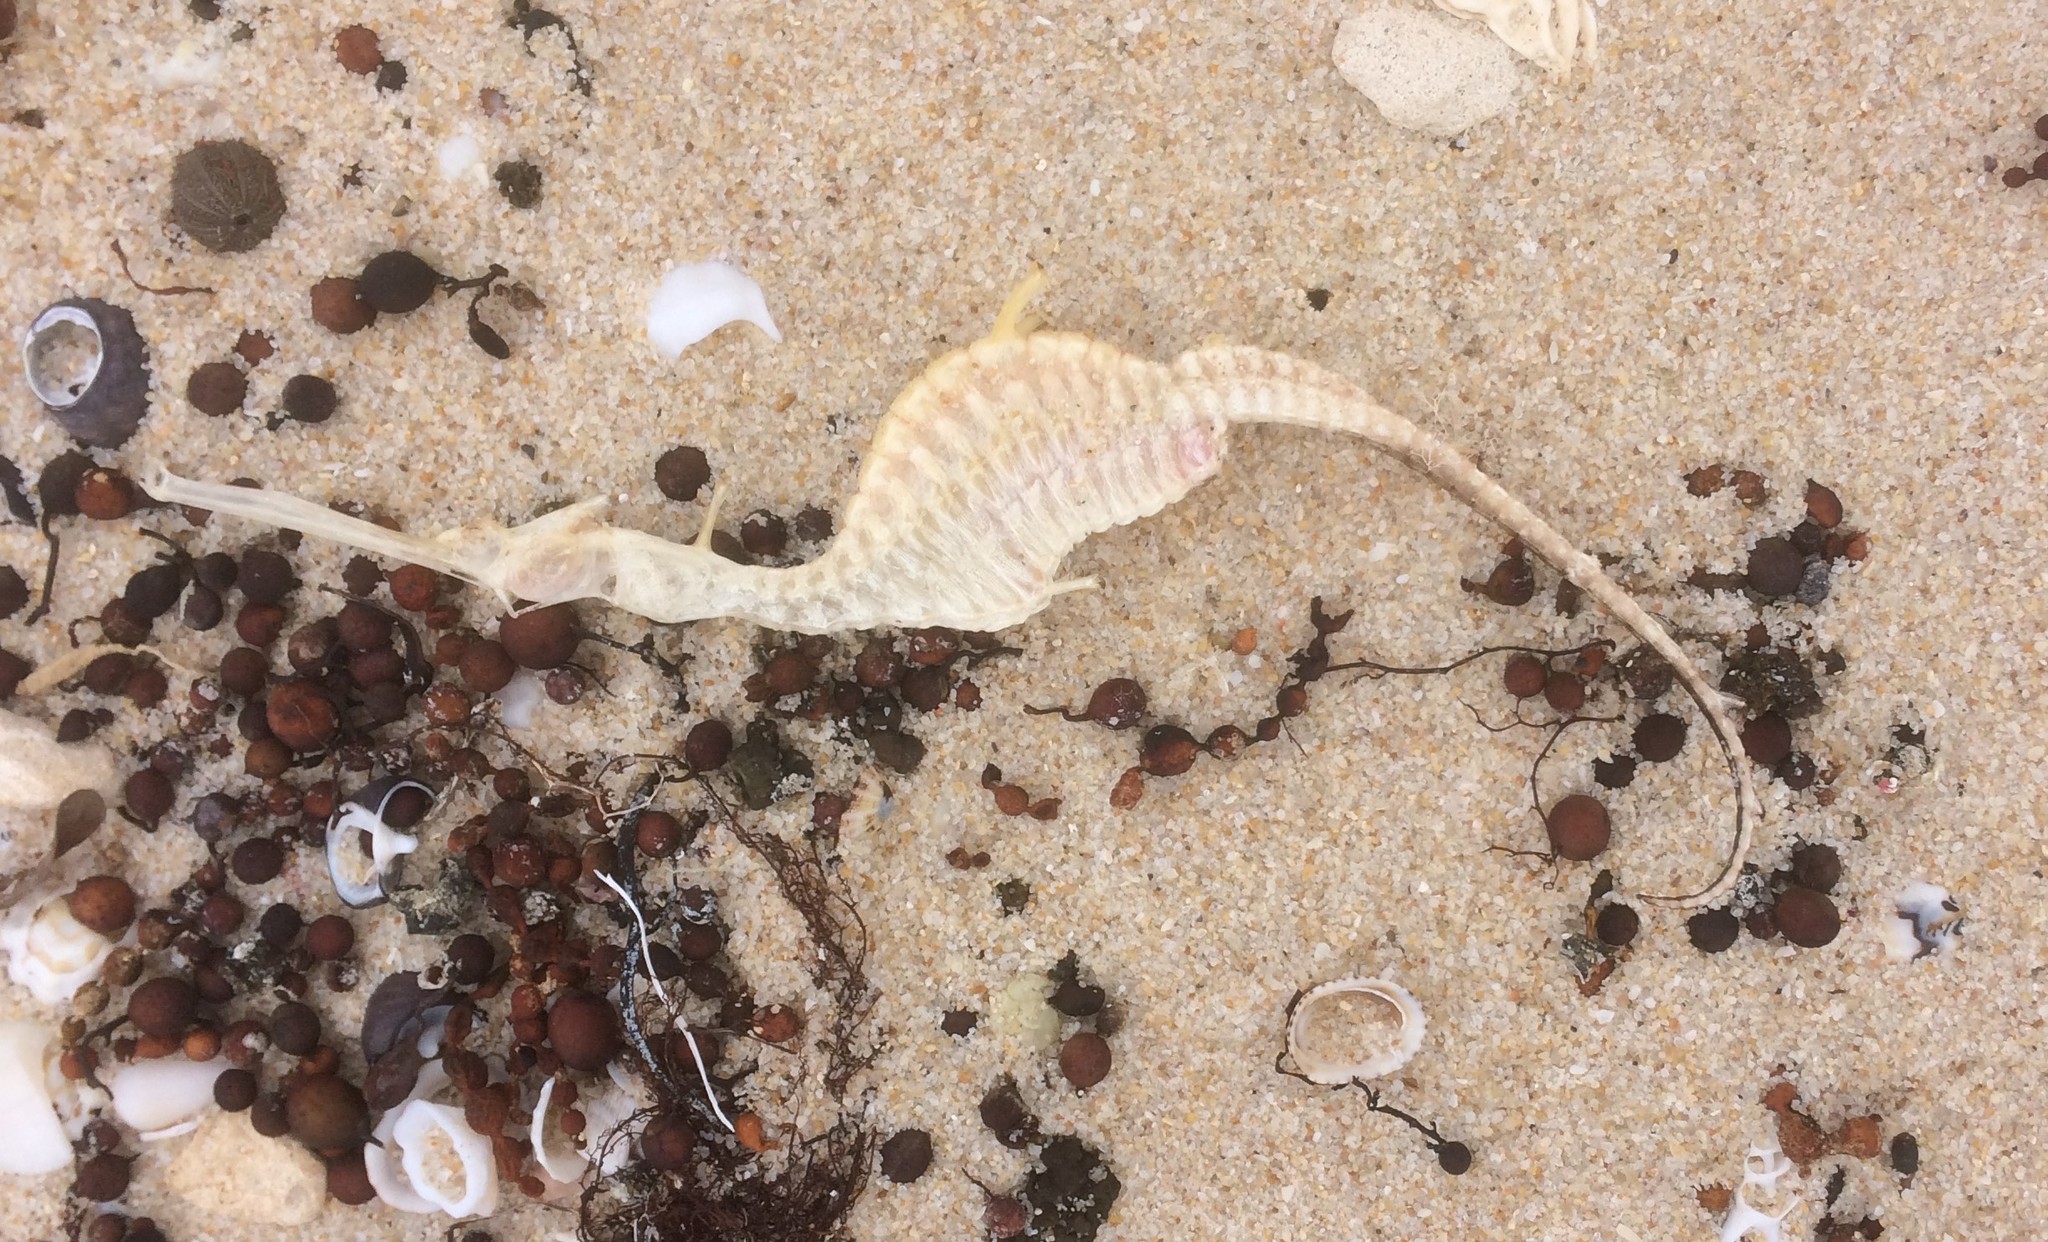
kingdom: Animalia
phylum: Chordata
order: Syngnathiformes
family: Syngnathidae
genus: Phyllopteryx
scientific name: Phyllopteryx taeniolatus
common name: Common seadragon
